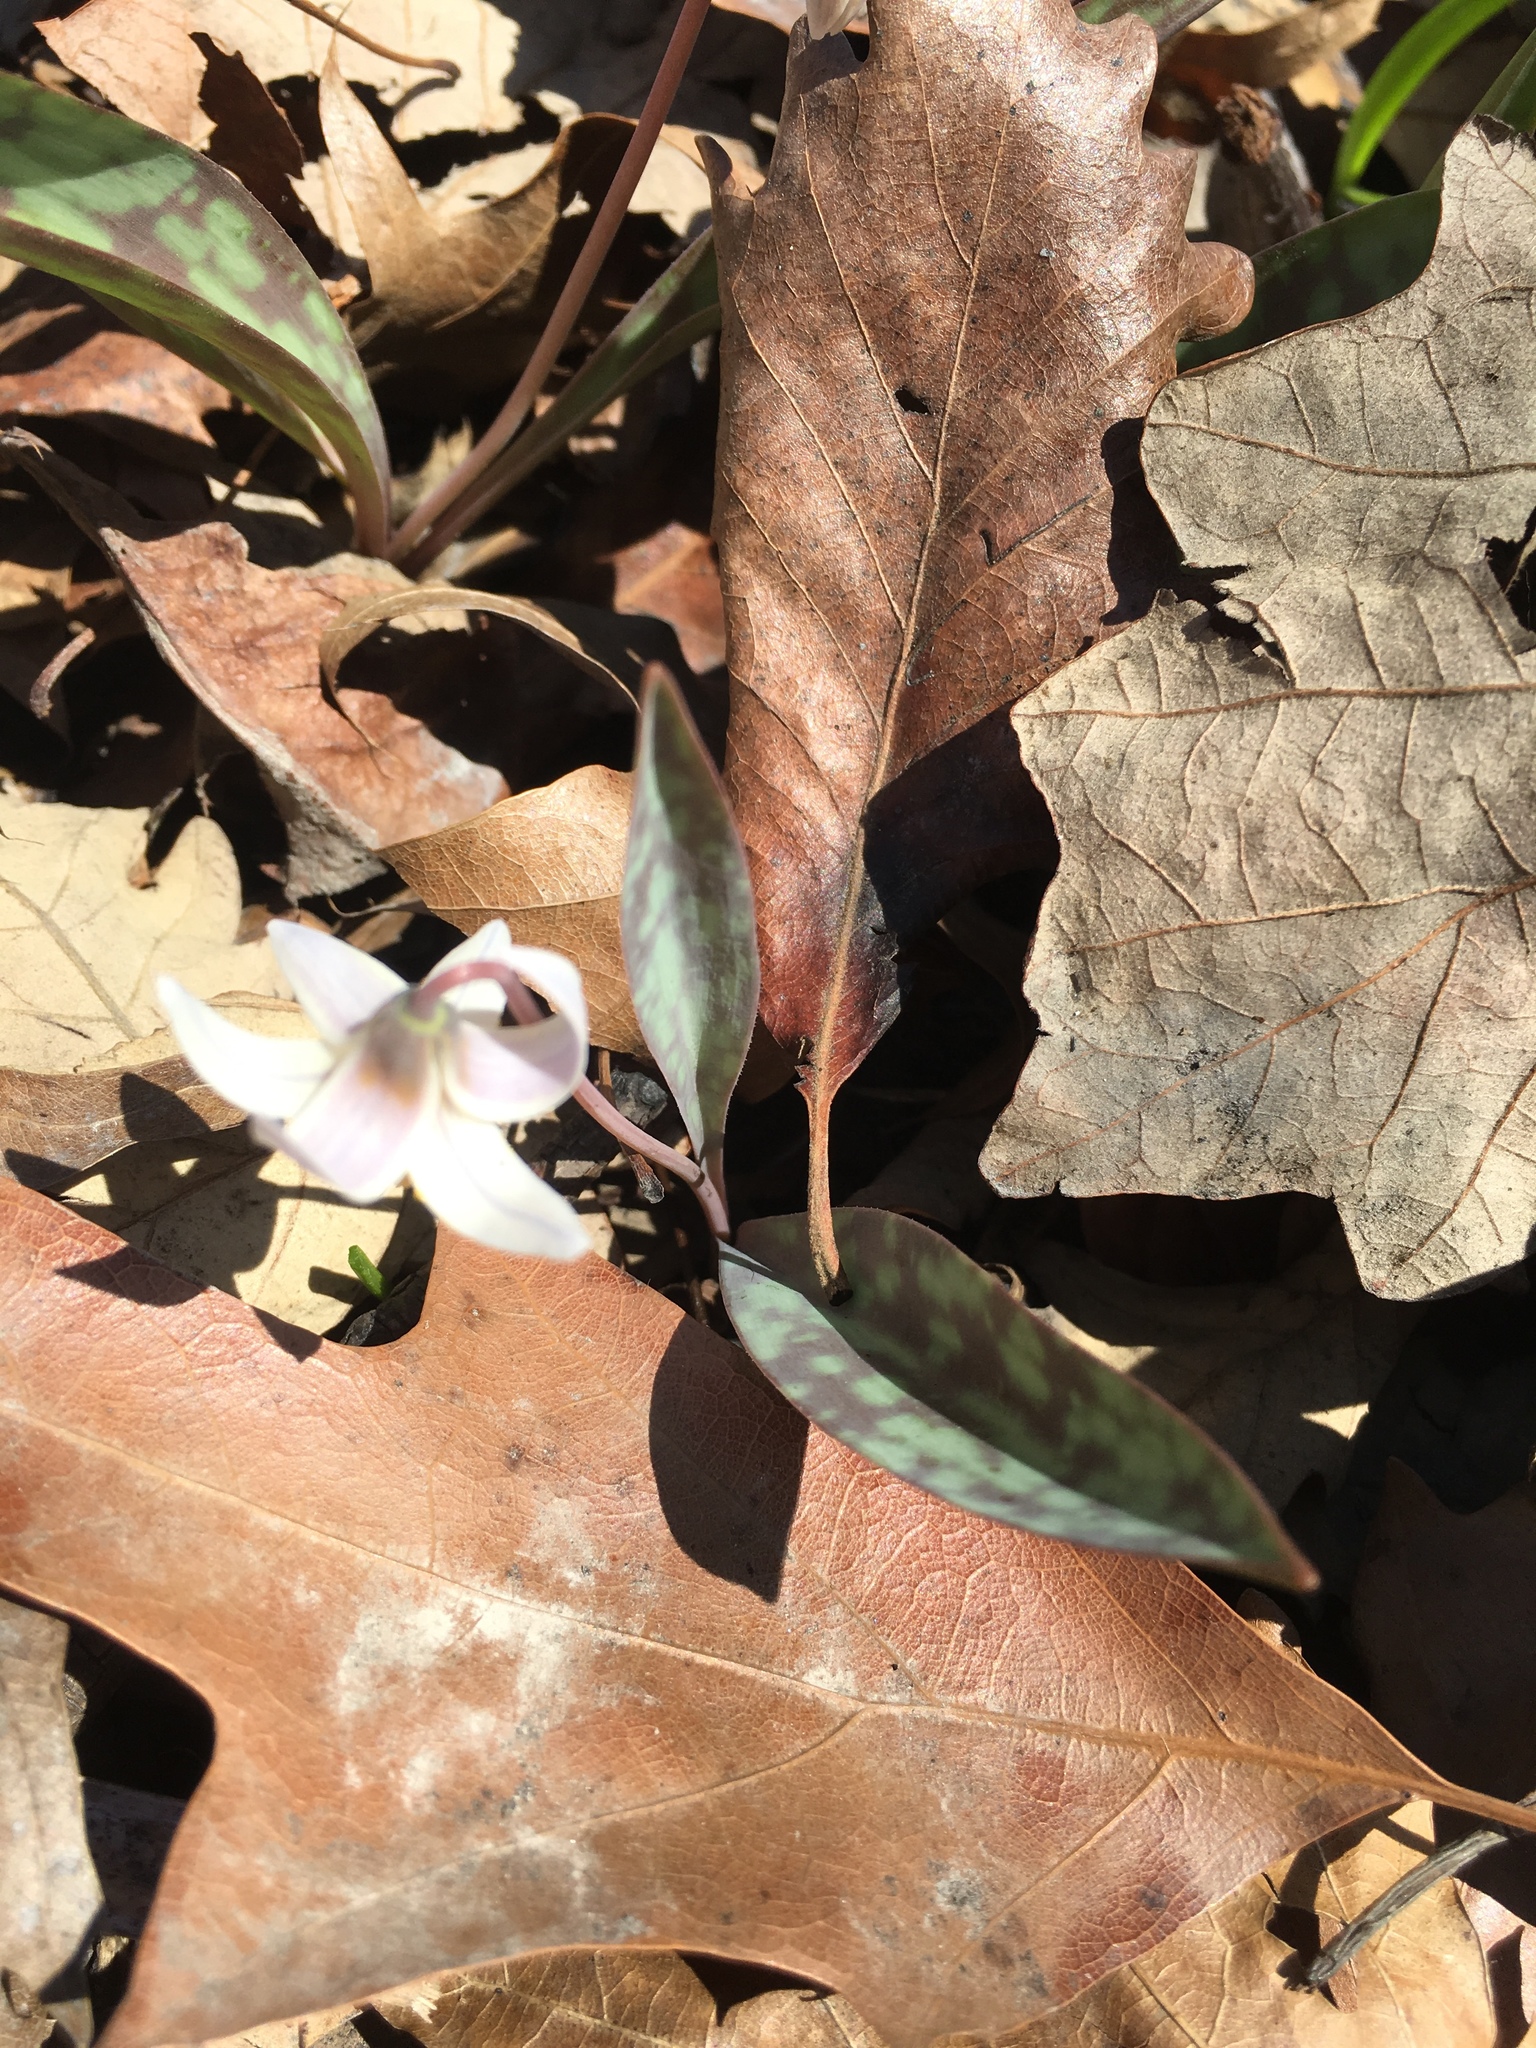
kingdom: Plantae
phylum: Tracheophyta
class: Liliopsida
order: Liliales
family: Liliaceae
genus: Erythronium
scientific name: Erythronium albidum
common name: White trout-lily
